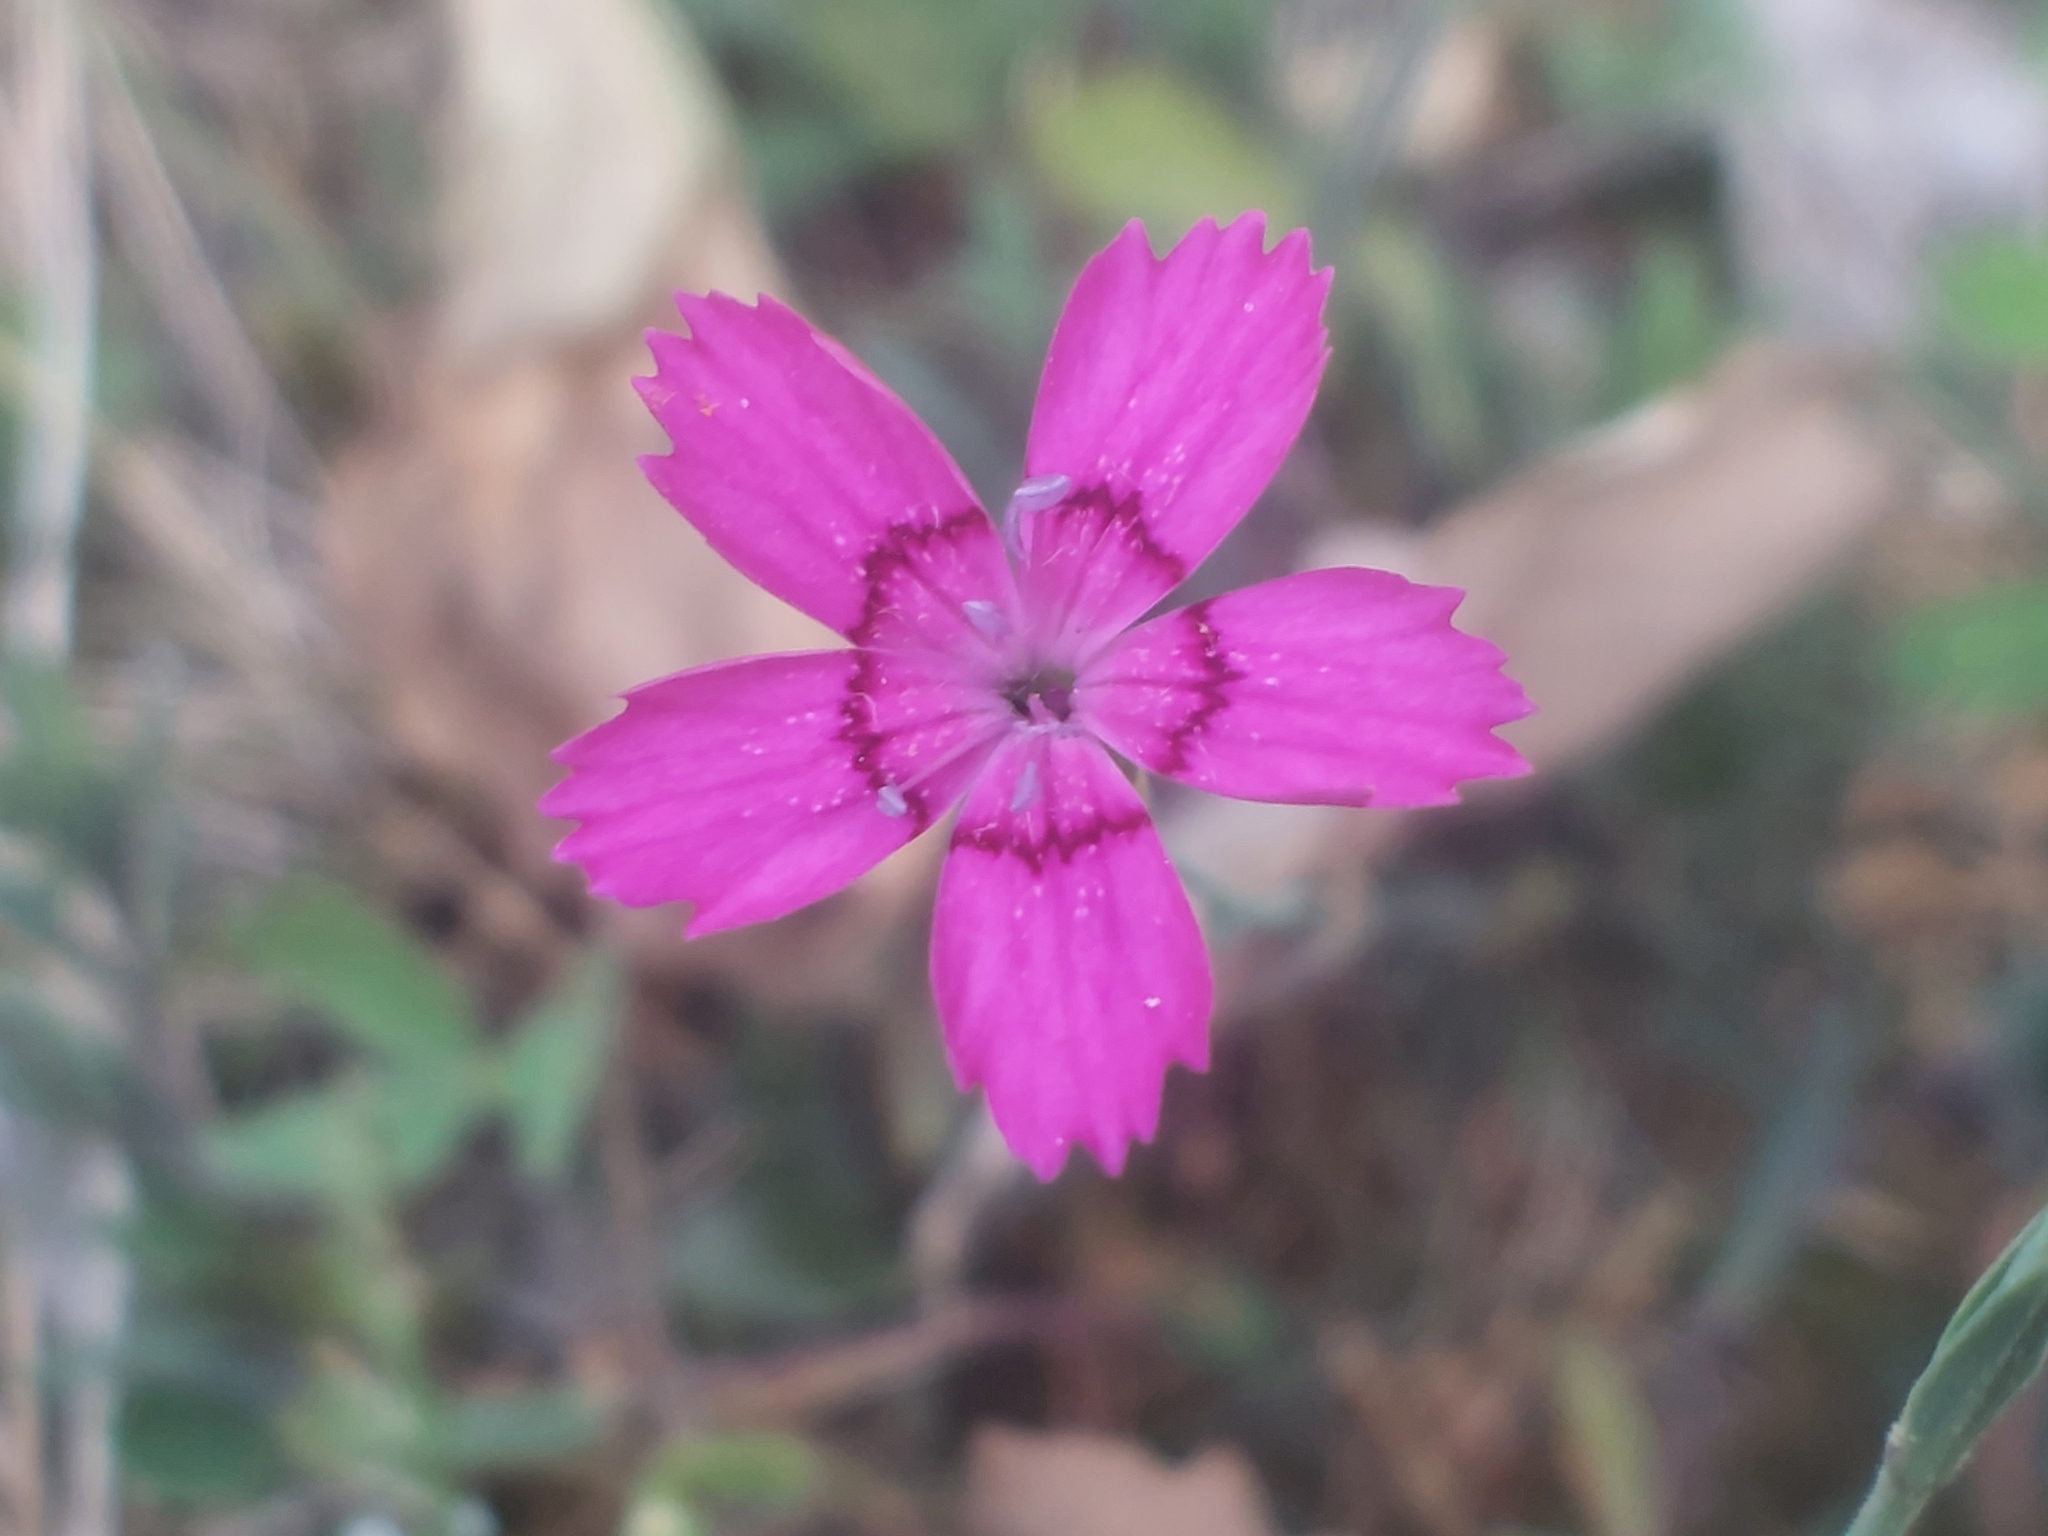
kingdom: Plantae
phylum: Tracheophyta
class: Magnoliopsida
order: Caryophyllales
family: Caryophyllaceae
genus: Dianthus
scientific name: Dianthus deltoides
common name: Maiden pink
